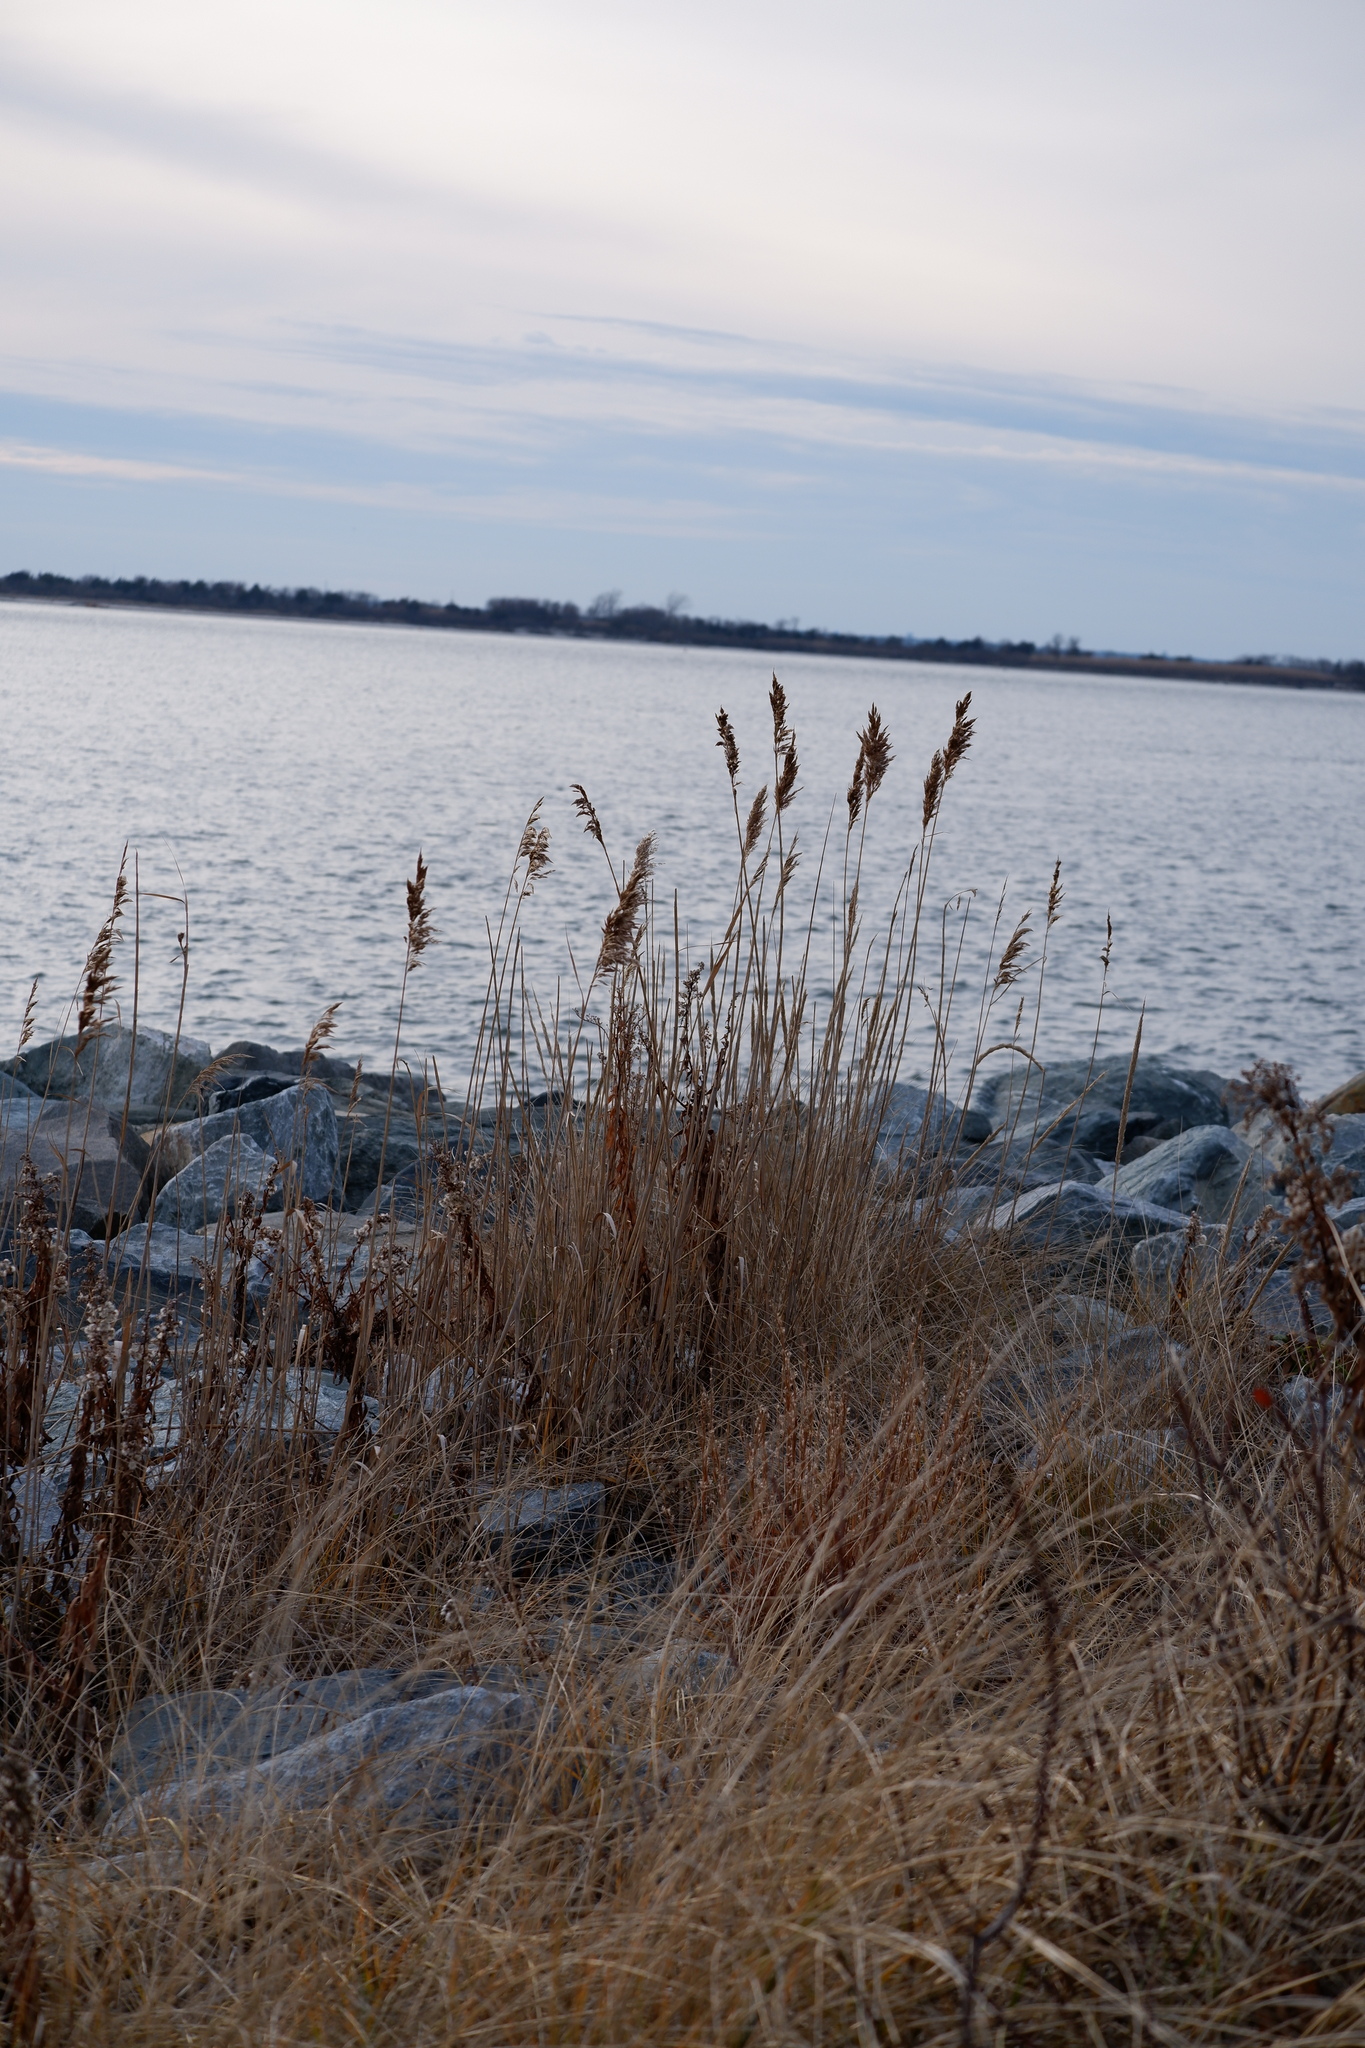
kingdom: Plantae
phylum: Tracheophyta
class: Liliopsida
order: Poales
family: Poaceae
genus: Phragmites
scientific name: Phragmites australis
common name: Common reed
